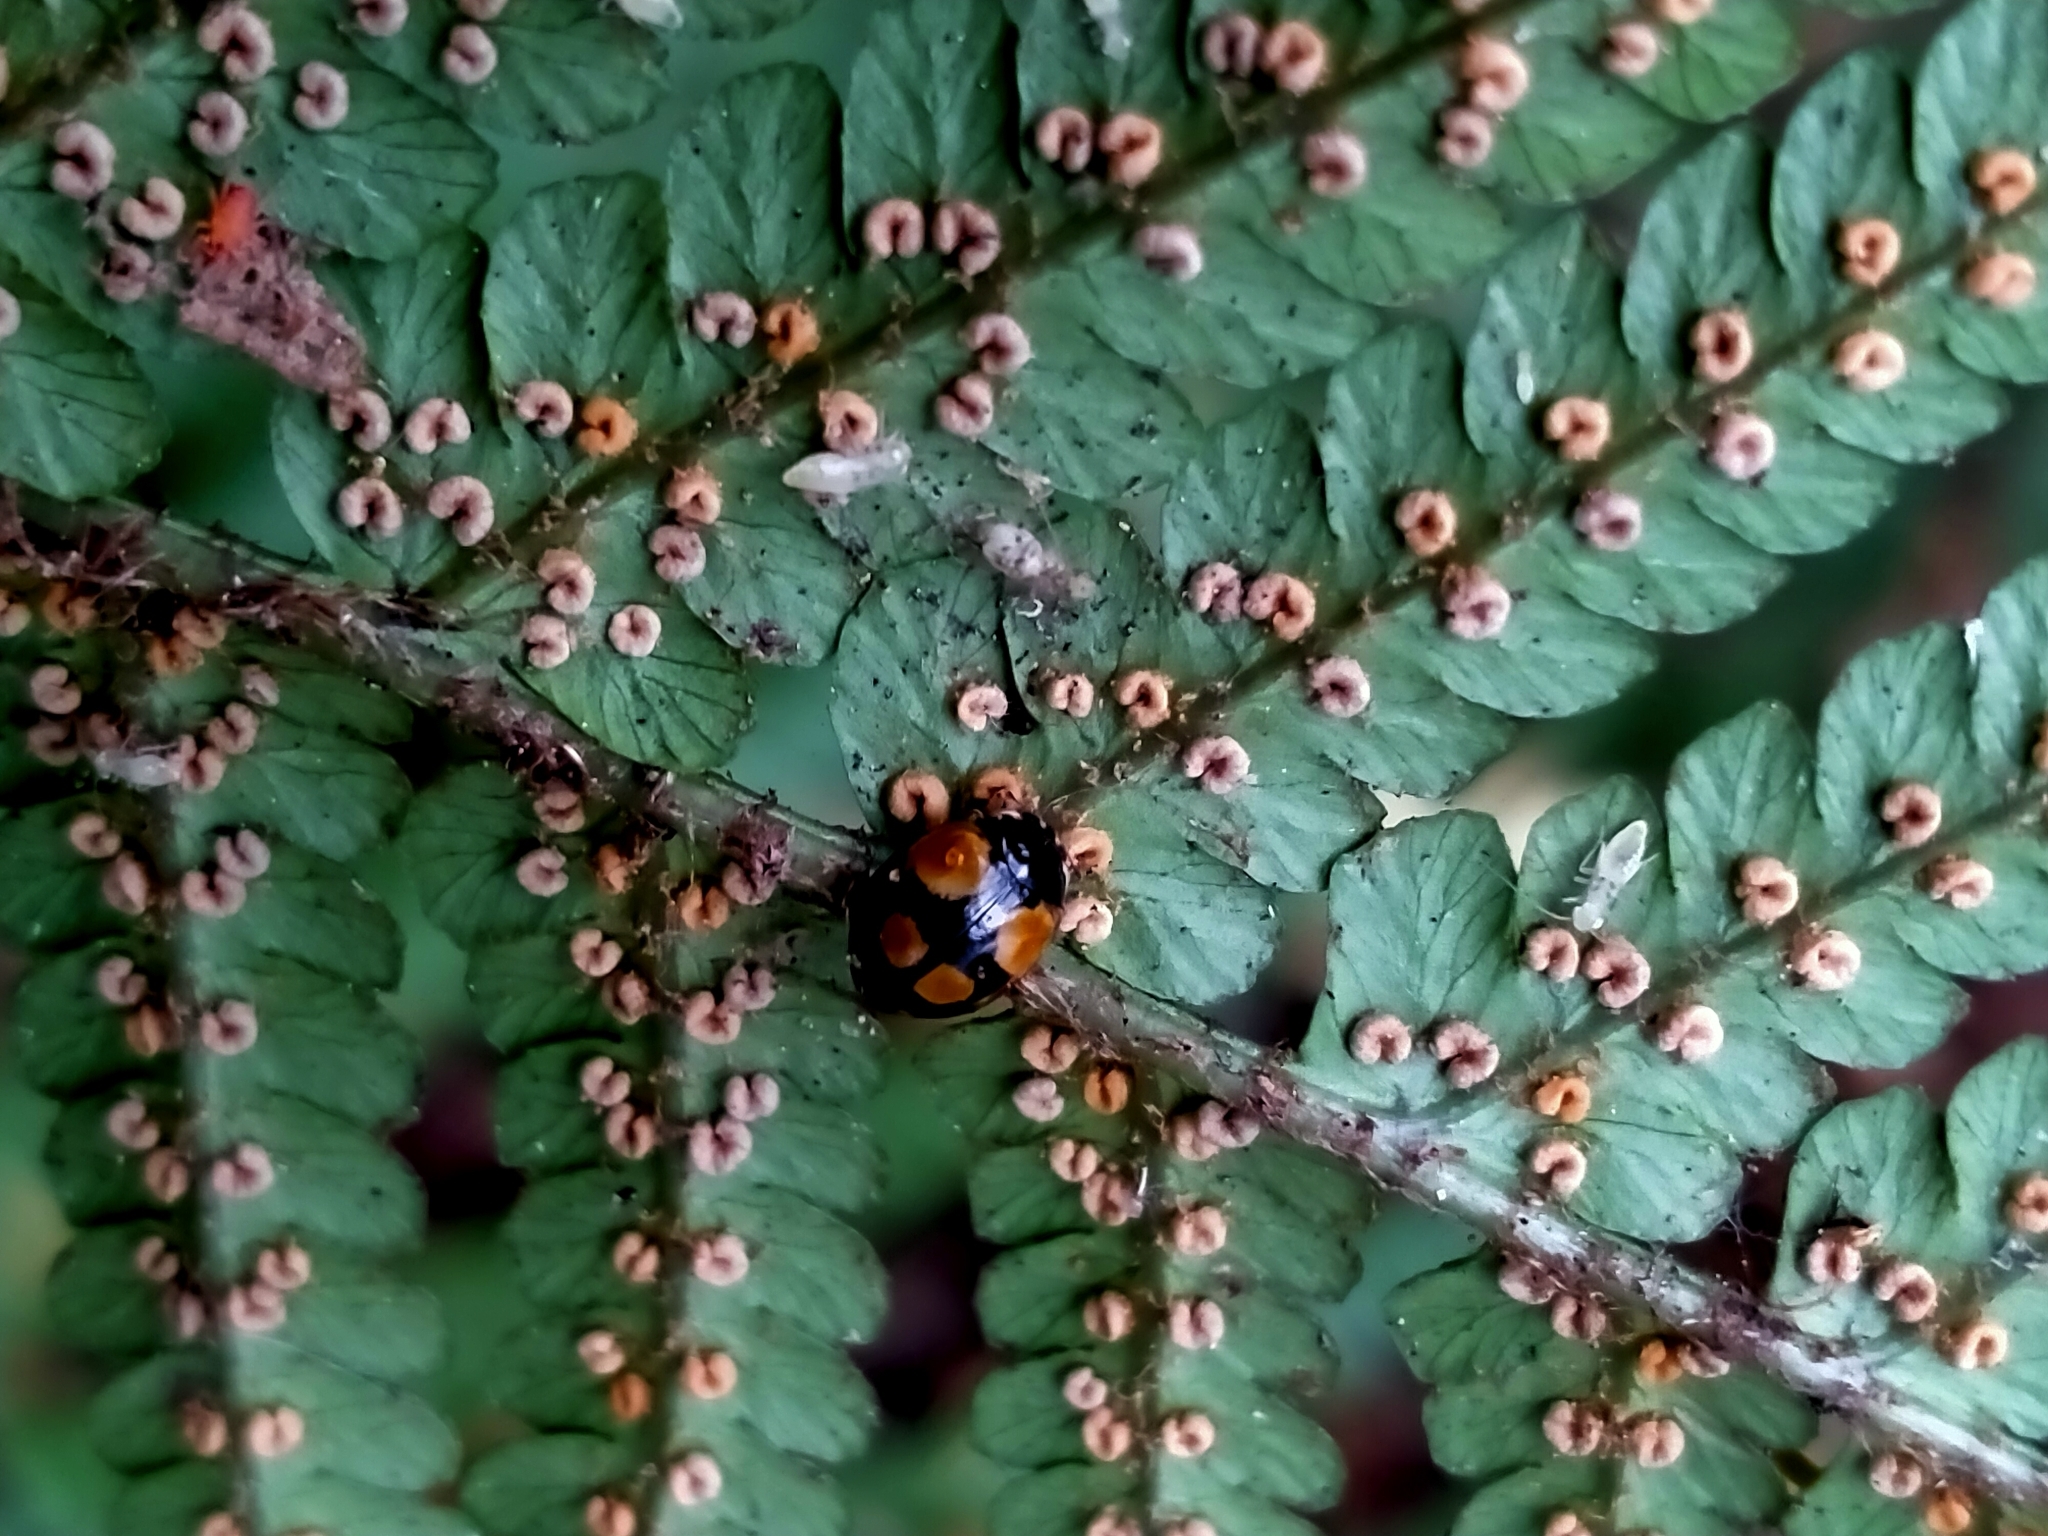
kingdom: Animalia
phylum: Arthropoda
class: Insecta
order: Coleoptera
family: Coccinellidae
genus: Adalia
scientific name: Adalia bipunctata
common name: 2-spot ladybird
